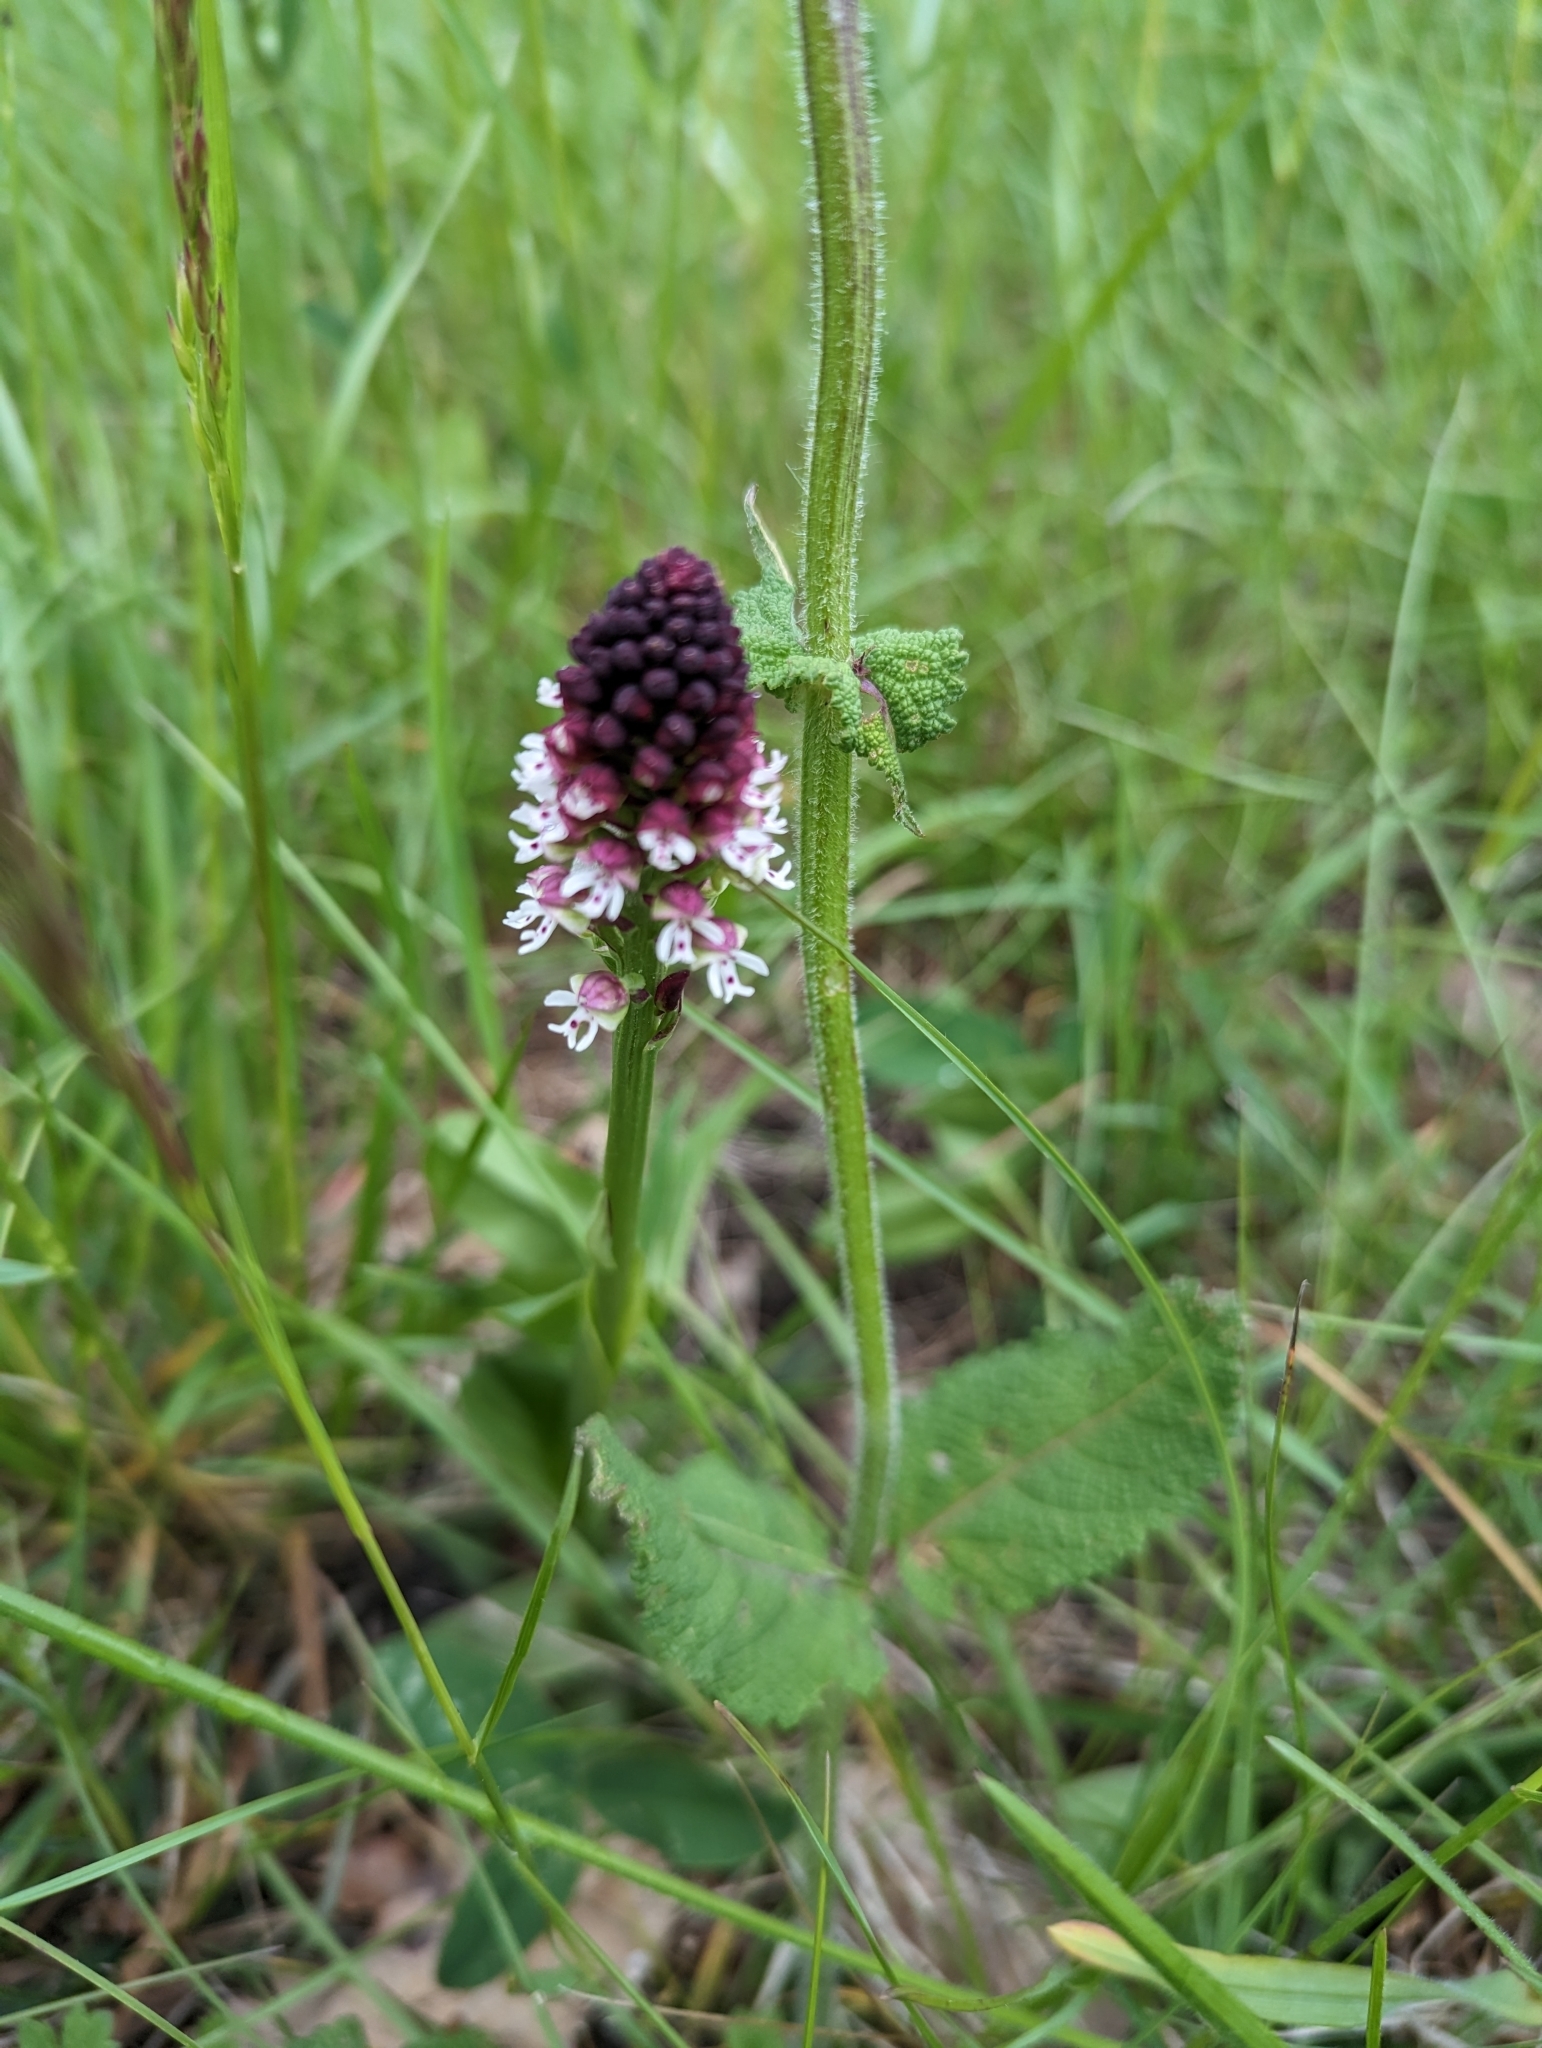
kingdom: Plantae
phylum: Tracheophyta
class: Liliopsida
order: Asparagales
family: Orchidaceae
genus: Neotinea
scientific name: Neotinea ustulata
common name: Burnt orchid
